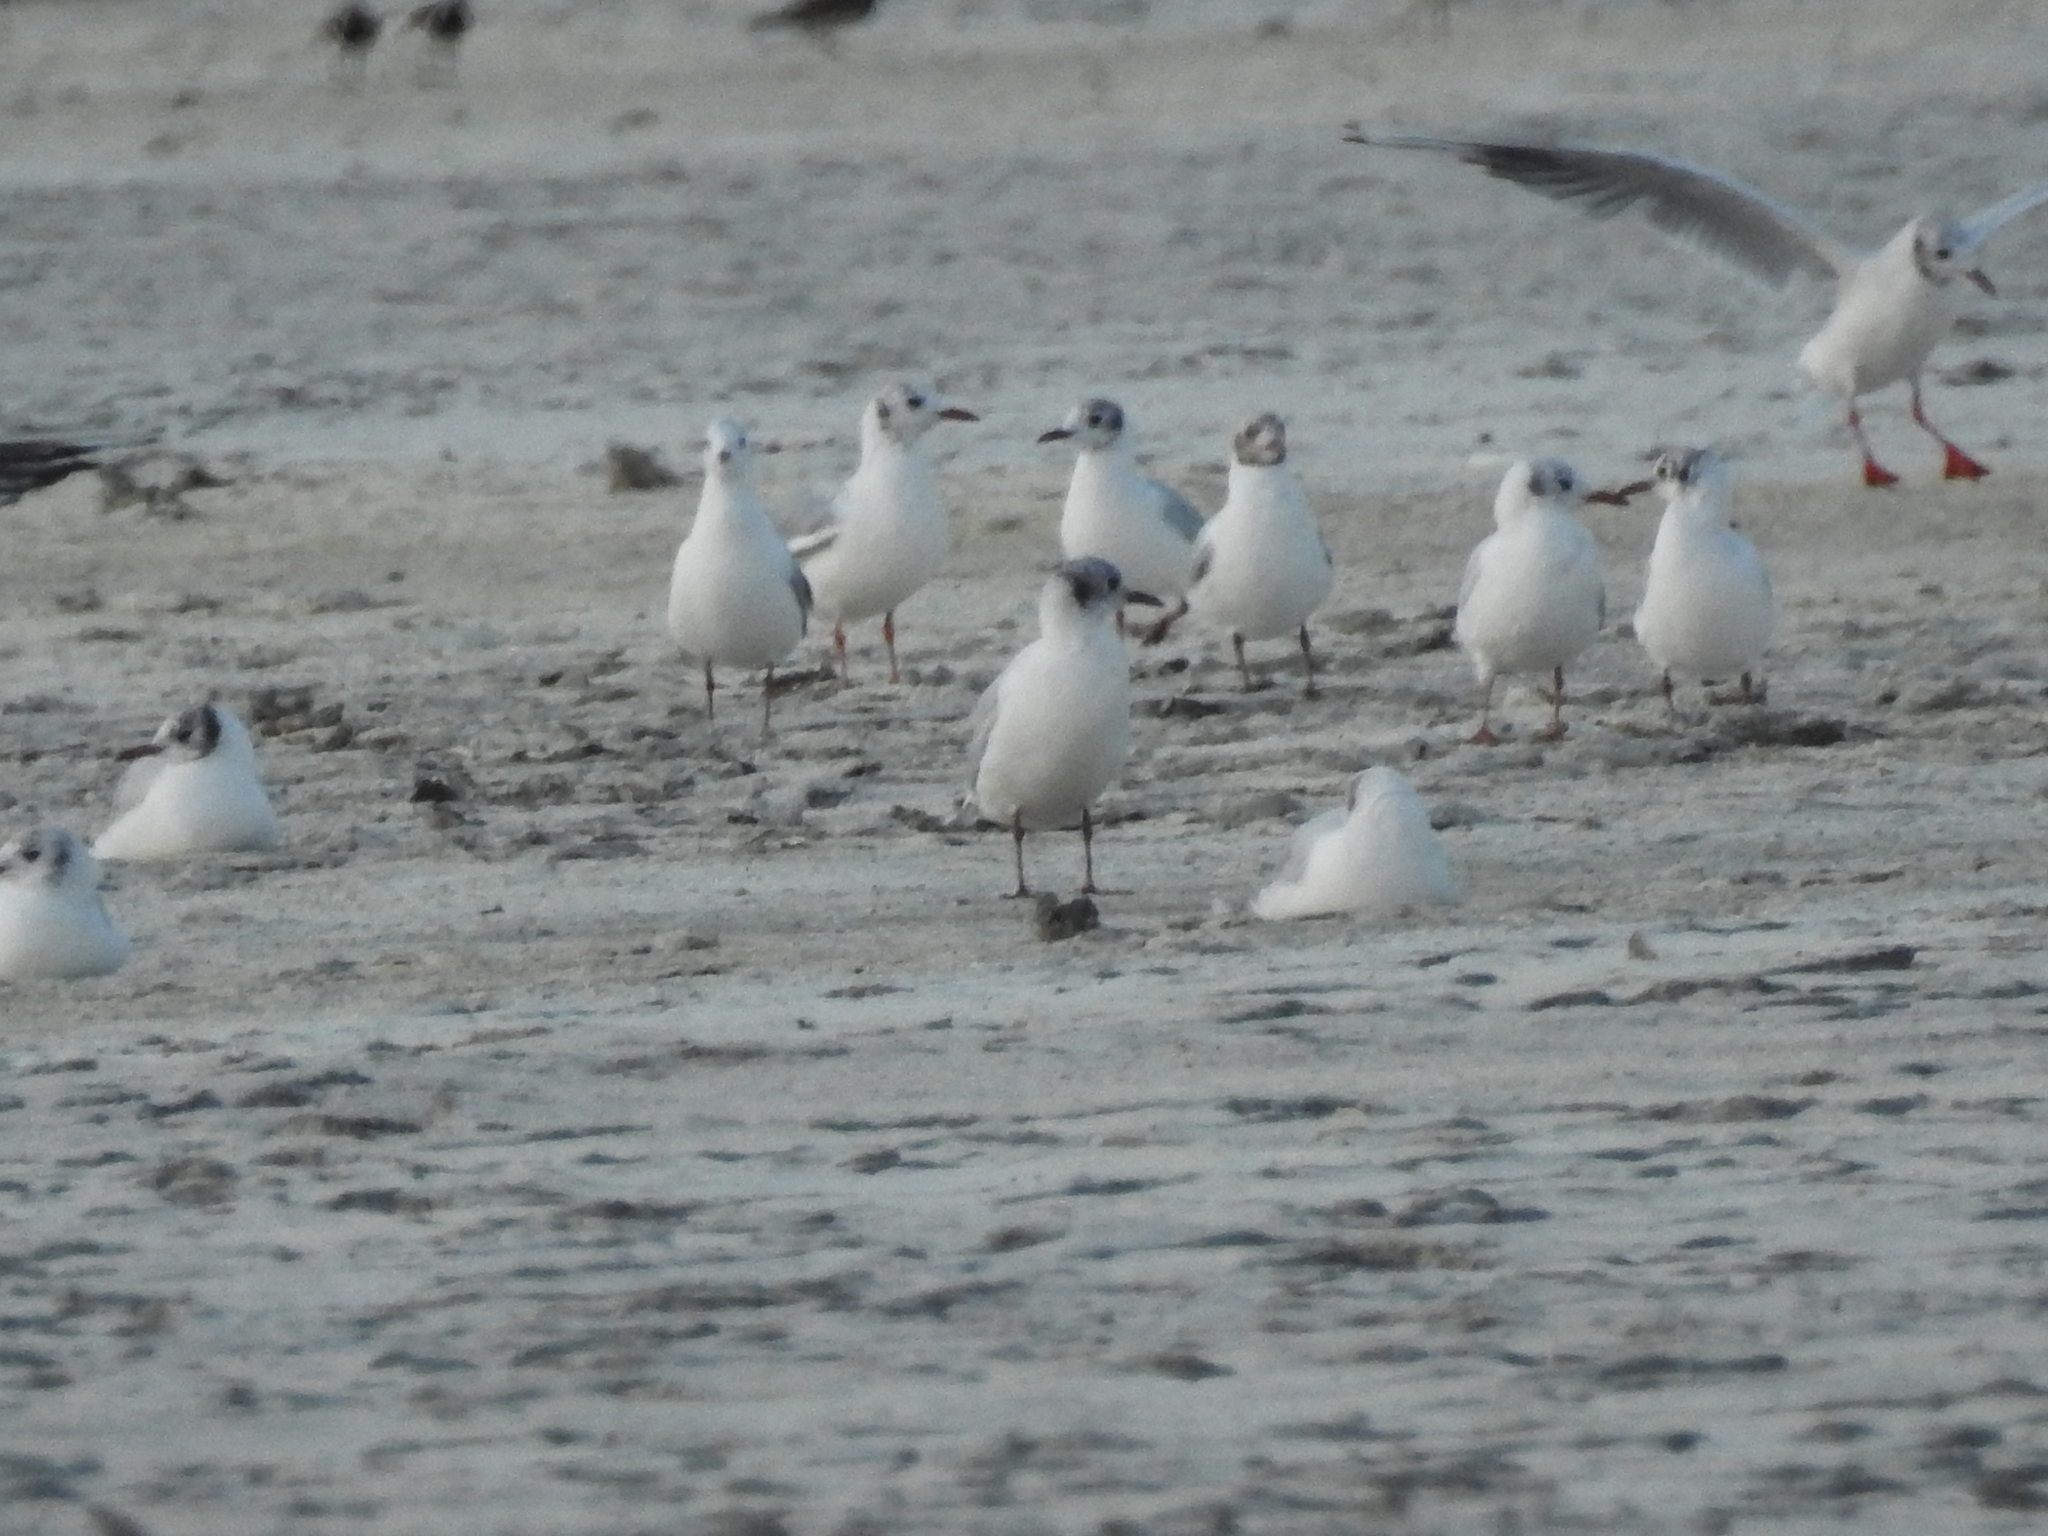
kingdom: Animalia
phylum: Chordata
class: Aves
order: Charadriiformes
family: Laridae
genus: Chroicocephalus
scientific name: Chroicocephalus ridibundus
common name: Black-headed gull
